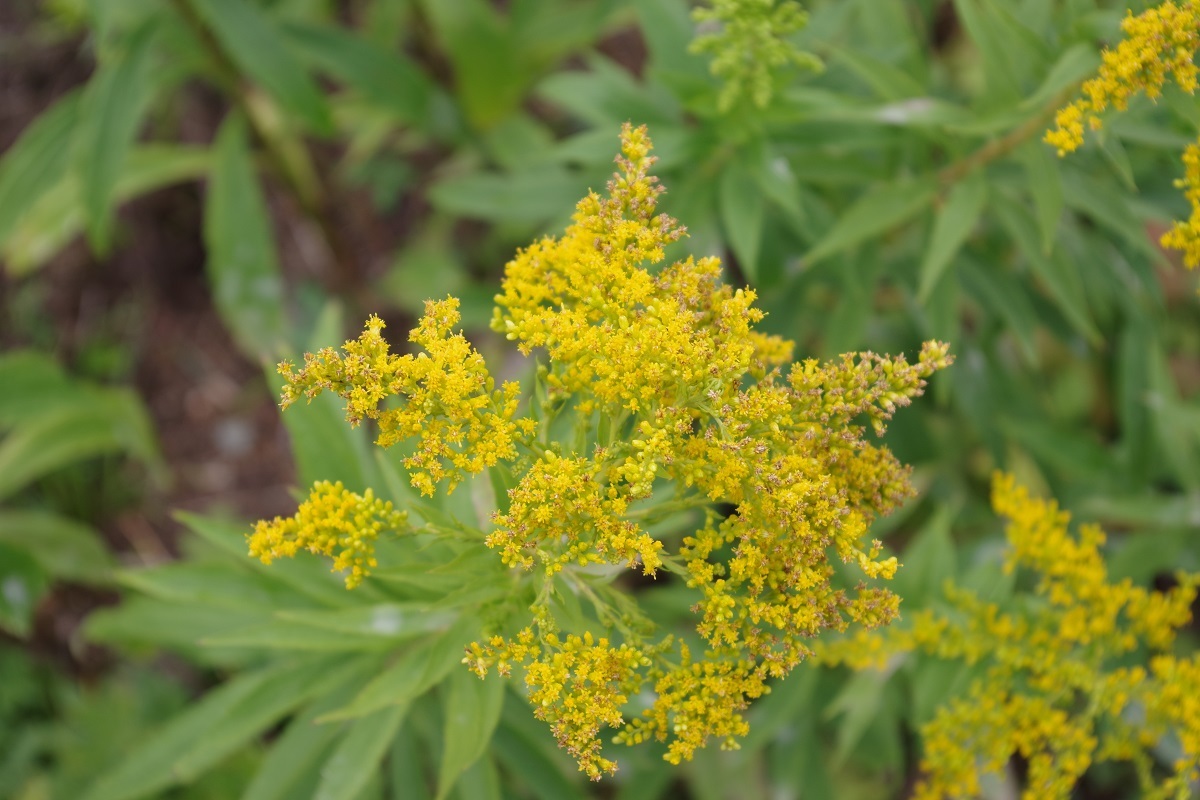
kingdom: Plantae
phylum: Tracheophyta
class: Magnoliopsida
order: Asterales
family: Asteraceae
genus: Solidago
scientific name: Solidago canadensis
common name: Canada goldenrod
